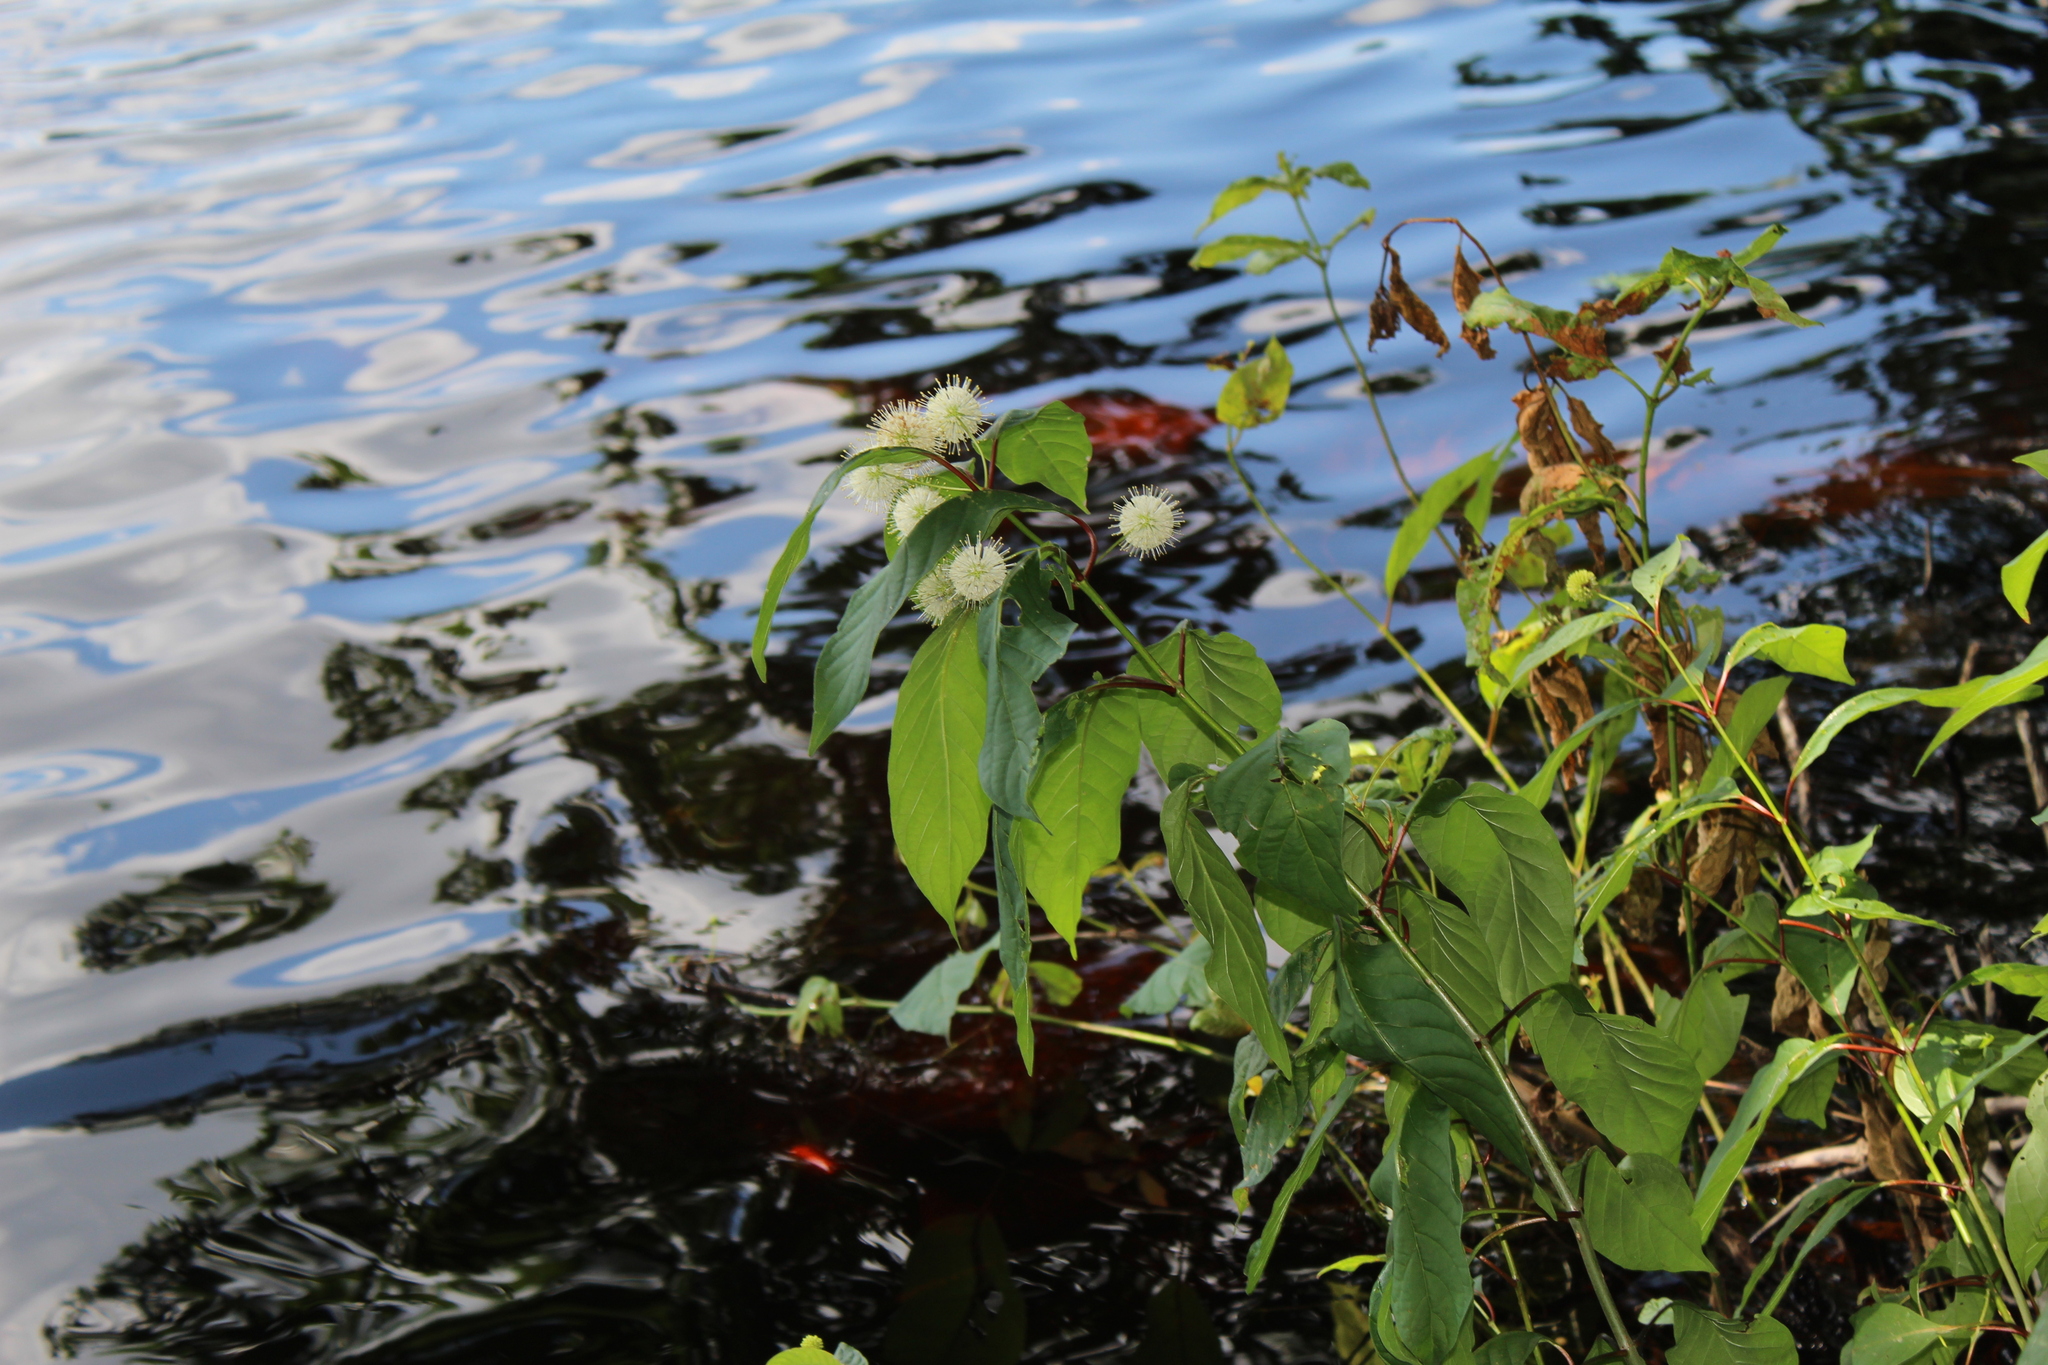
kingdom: Plantae
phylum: Tracheophyta
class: Magnoliopsida
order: Gentianales
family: Rubiaceae
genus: Cephalanthus
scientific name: Cephalanthus occidentalis
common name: Button-willow
